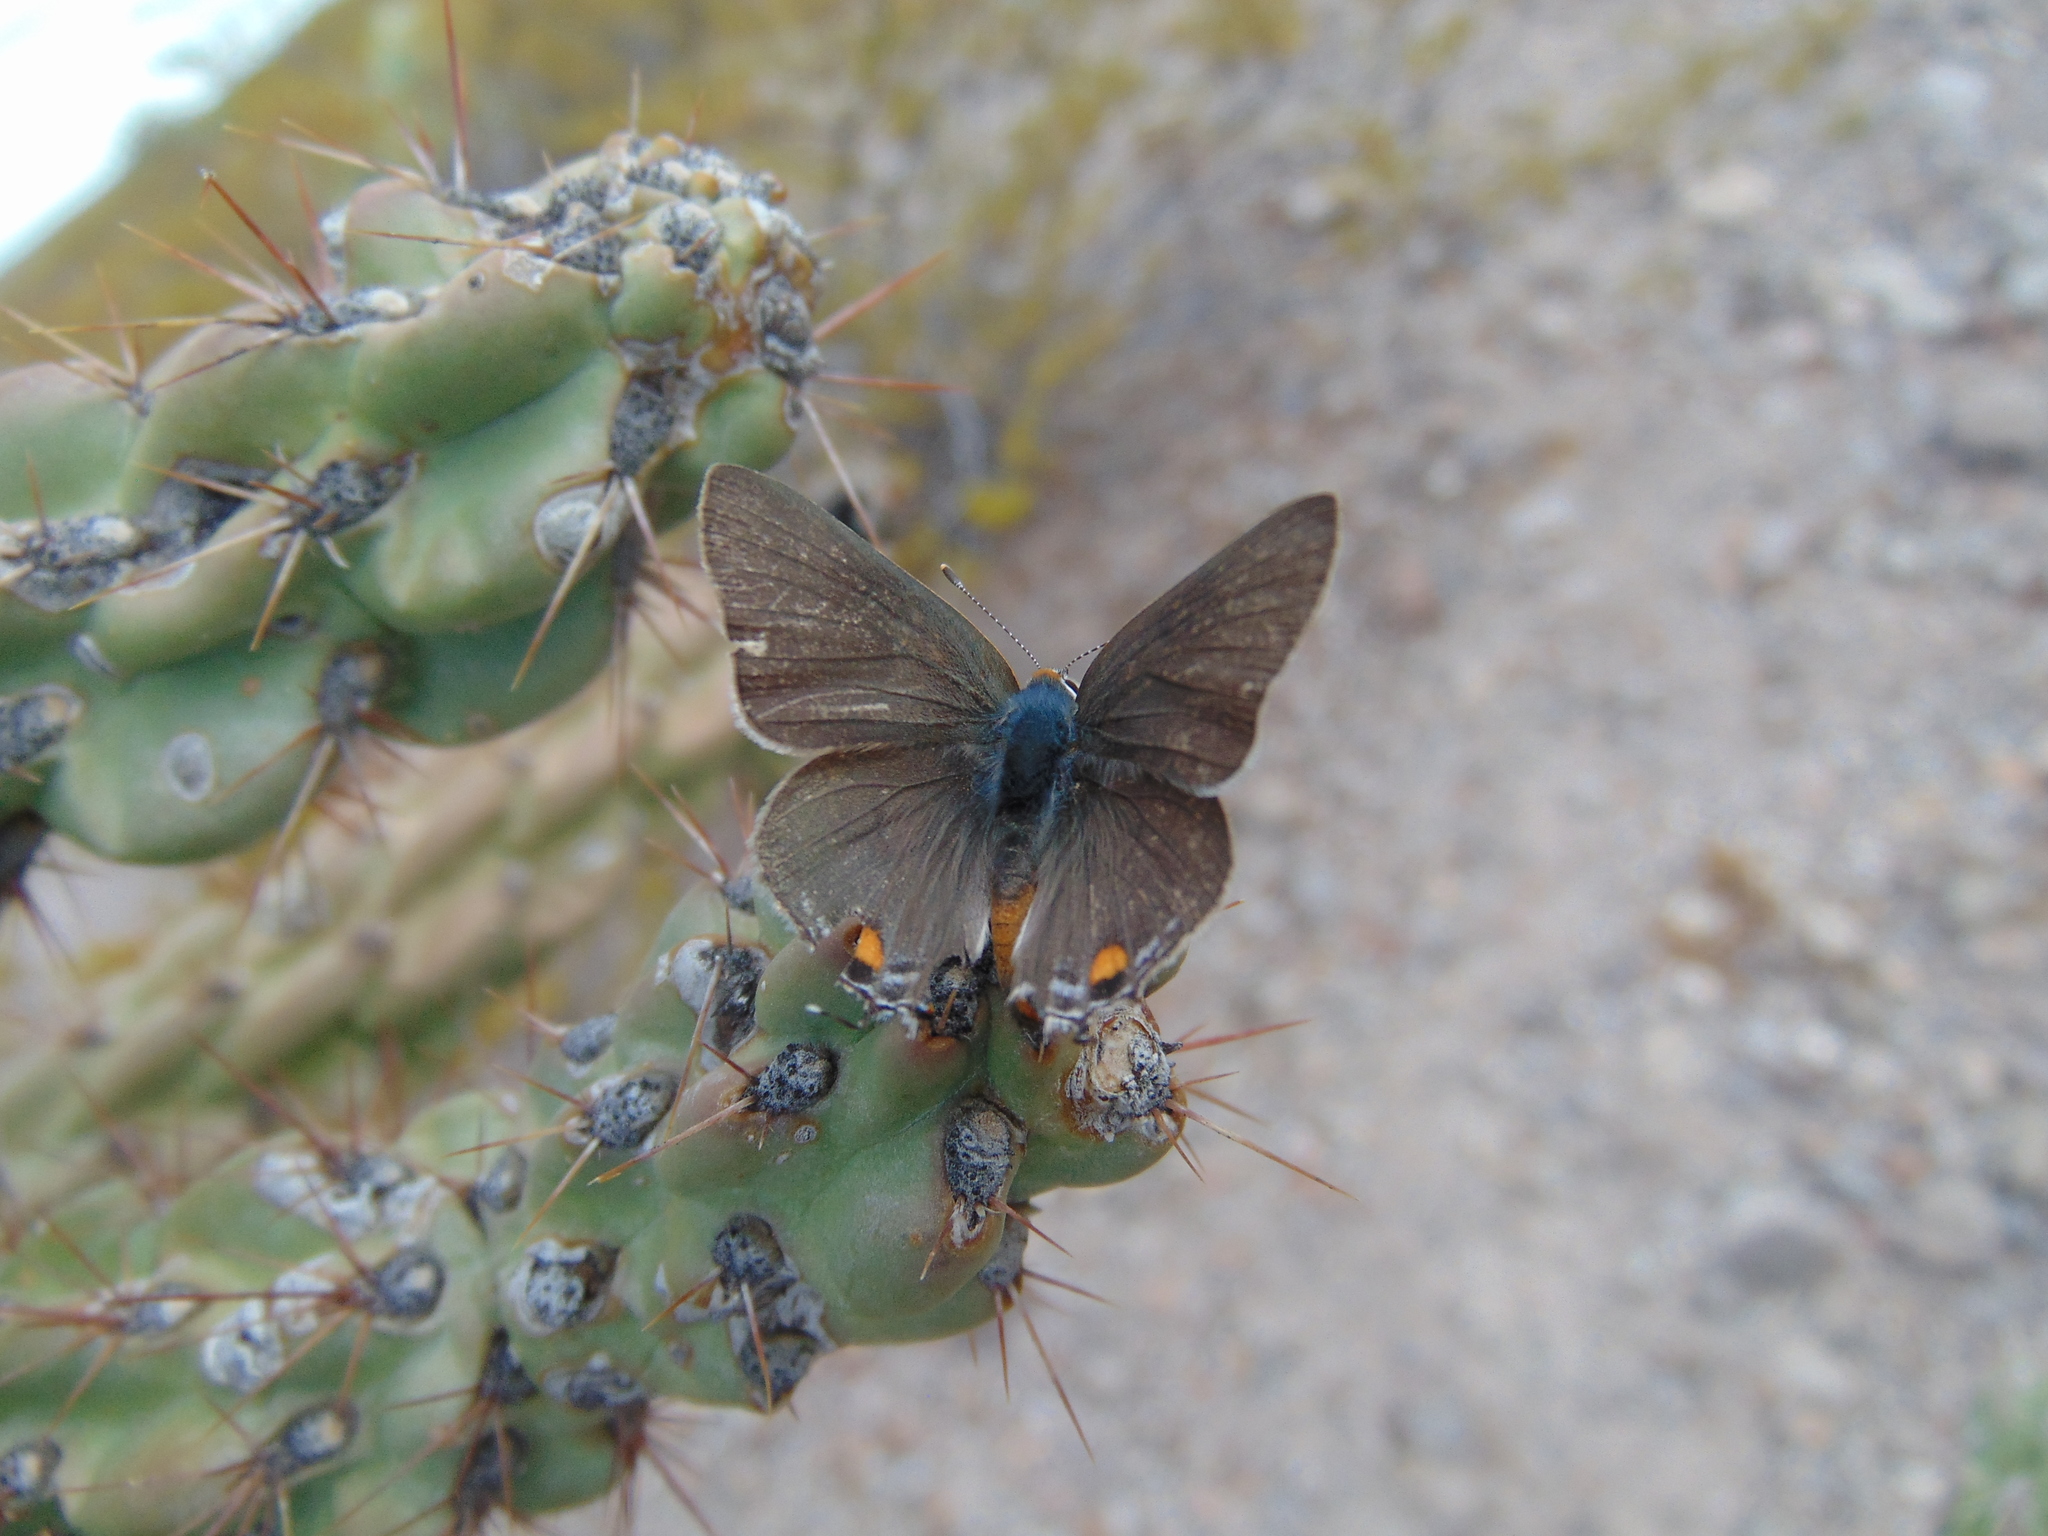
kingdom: Animalia
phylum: Arthropoda
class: Insecta
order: Lepidoptera
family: Lycaenidae
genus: Strymon
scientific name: Strymon melinus
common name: Gray hairstreak
